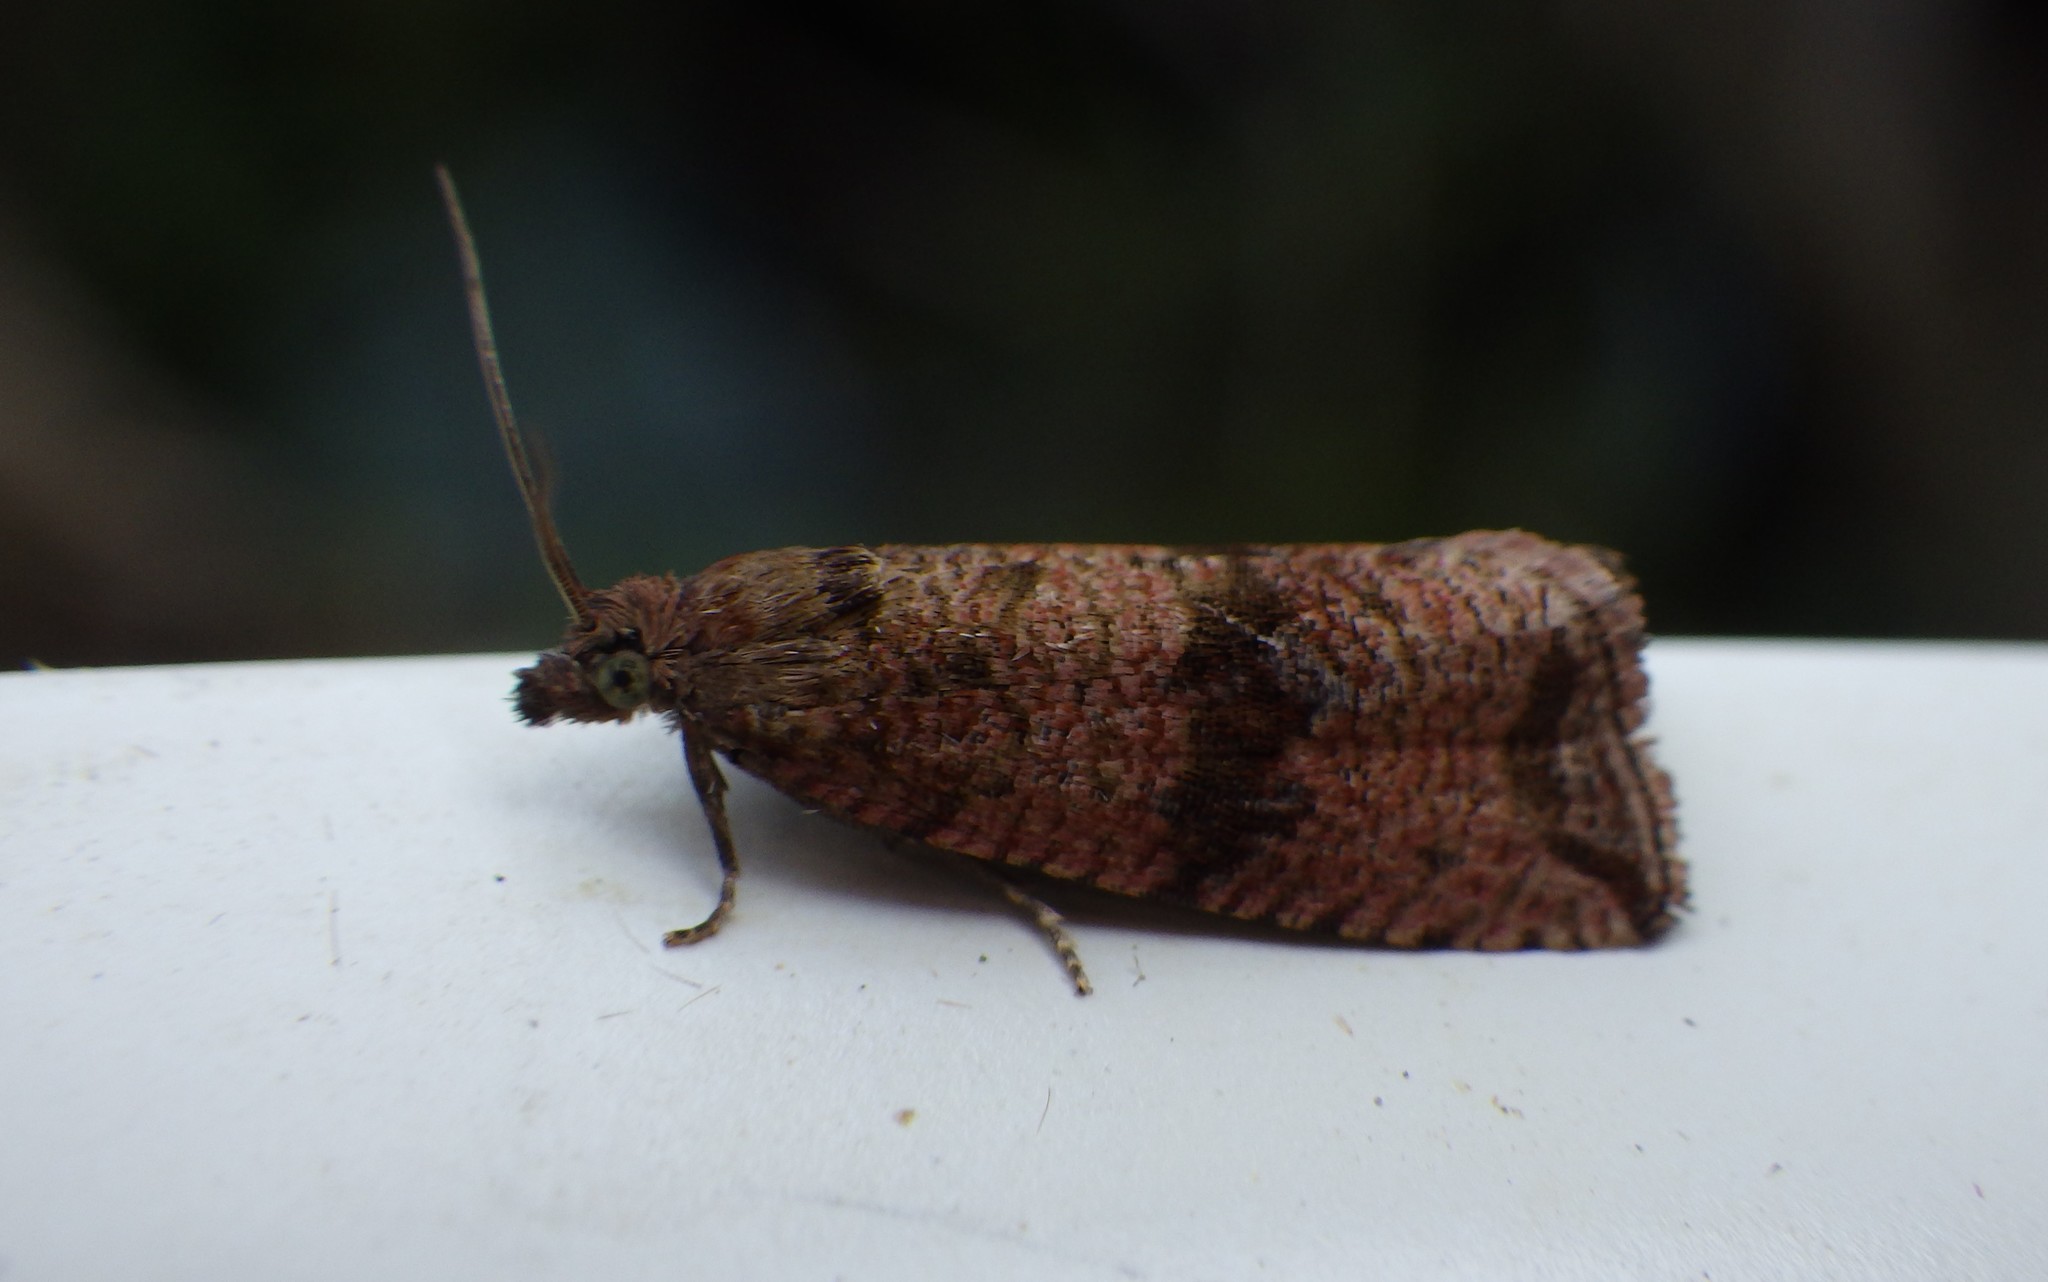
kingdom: Animalia
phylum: Arthropoda
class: Insecta
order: Lepidoptera
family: Tortricidae
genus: Celypha
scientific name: Celypha striana
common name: Barred marble
